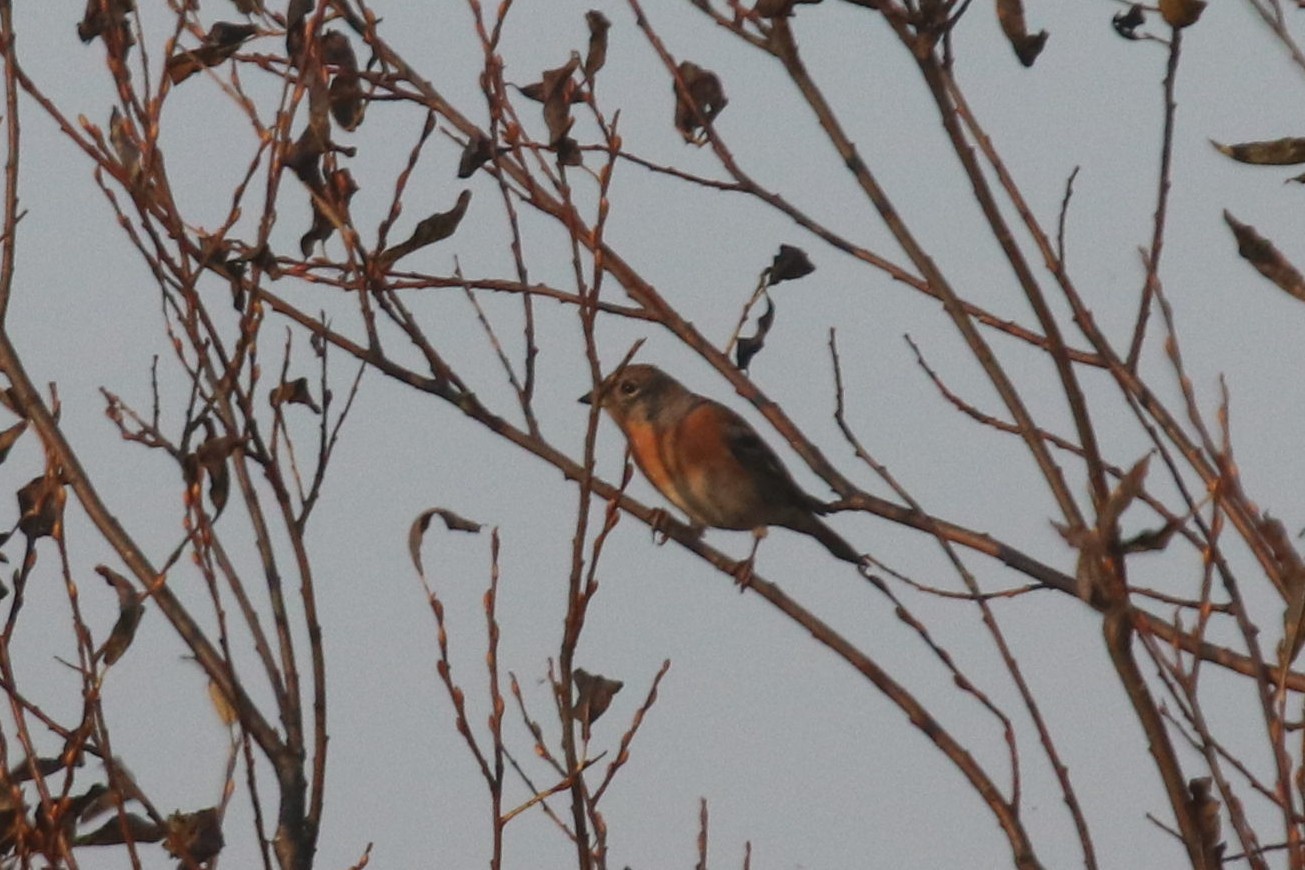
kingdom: Animalia
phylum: Chordata
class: Aves
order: Passeriformes
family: Fringillidae
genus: Fringilla
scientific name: Fringilla montifringilla
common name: Brambling
